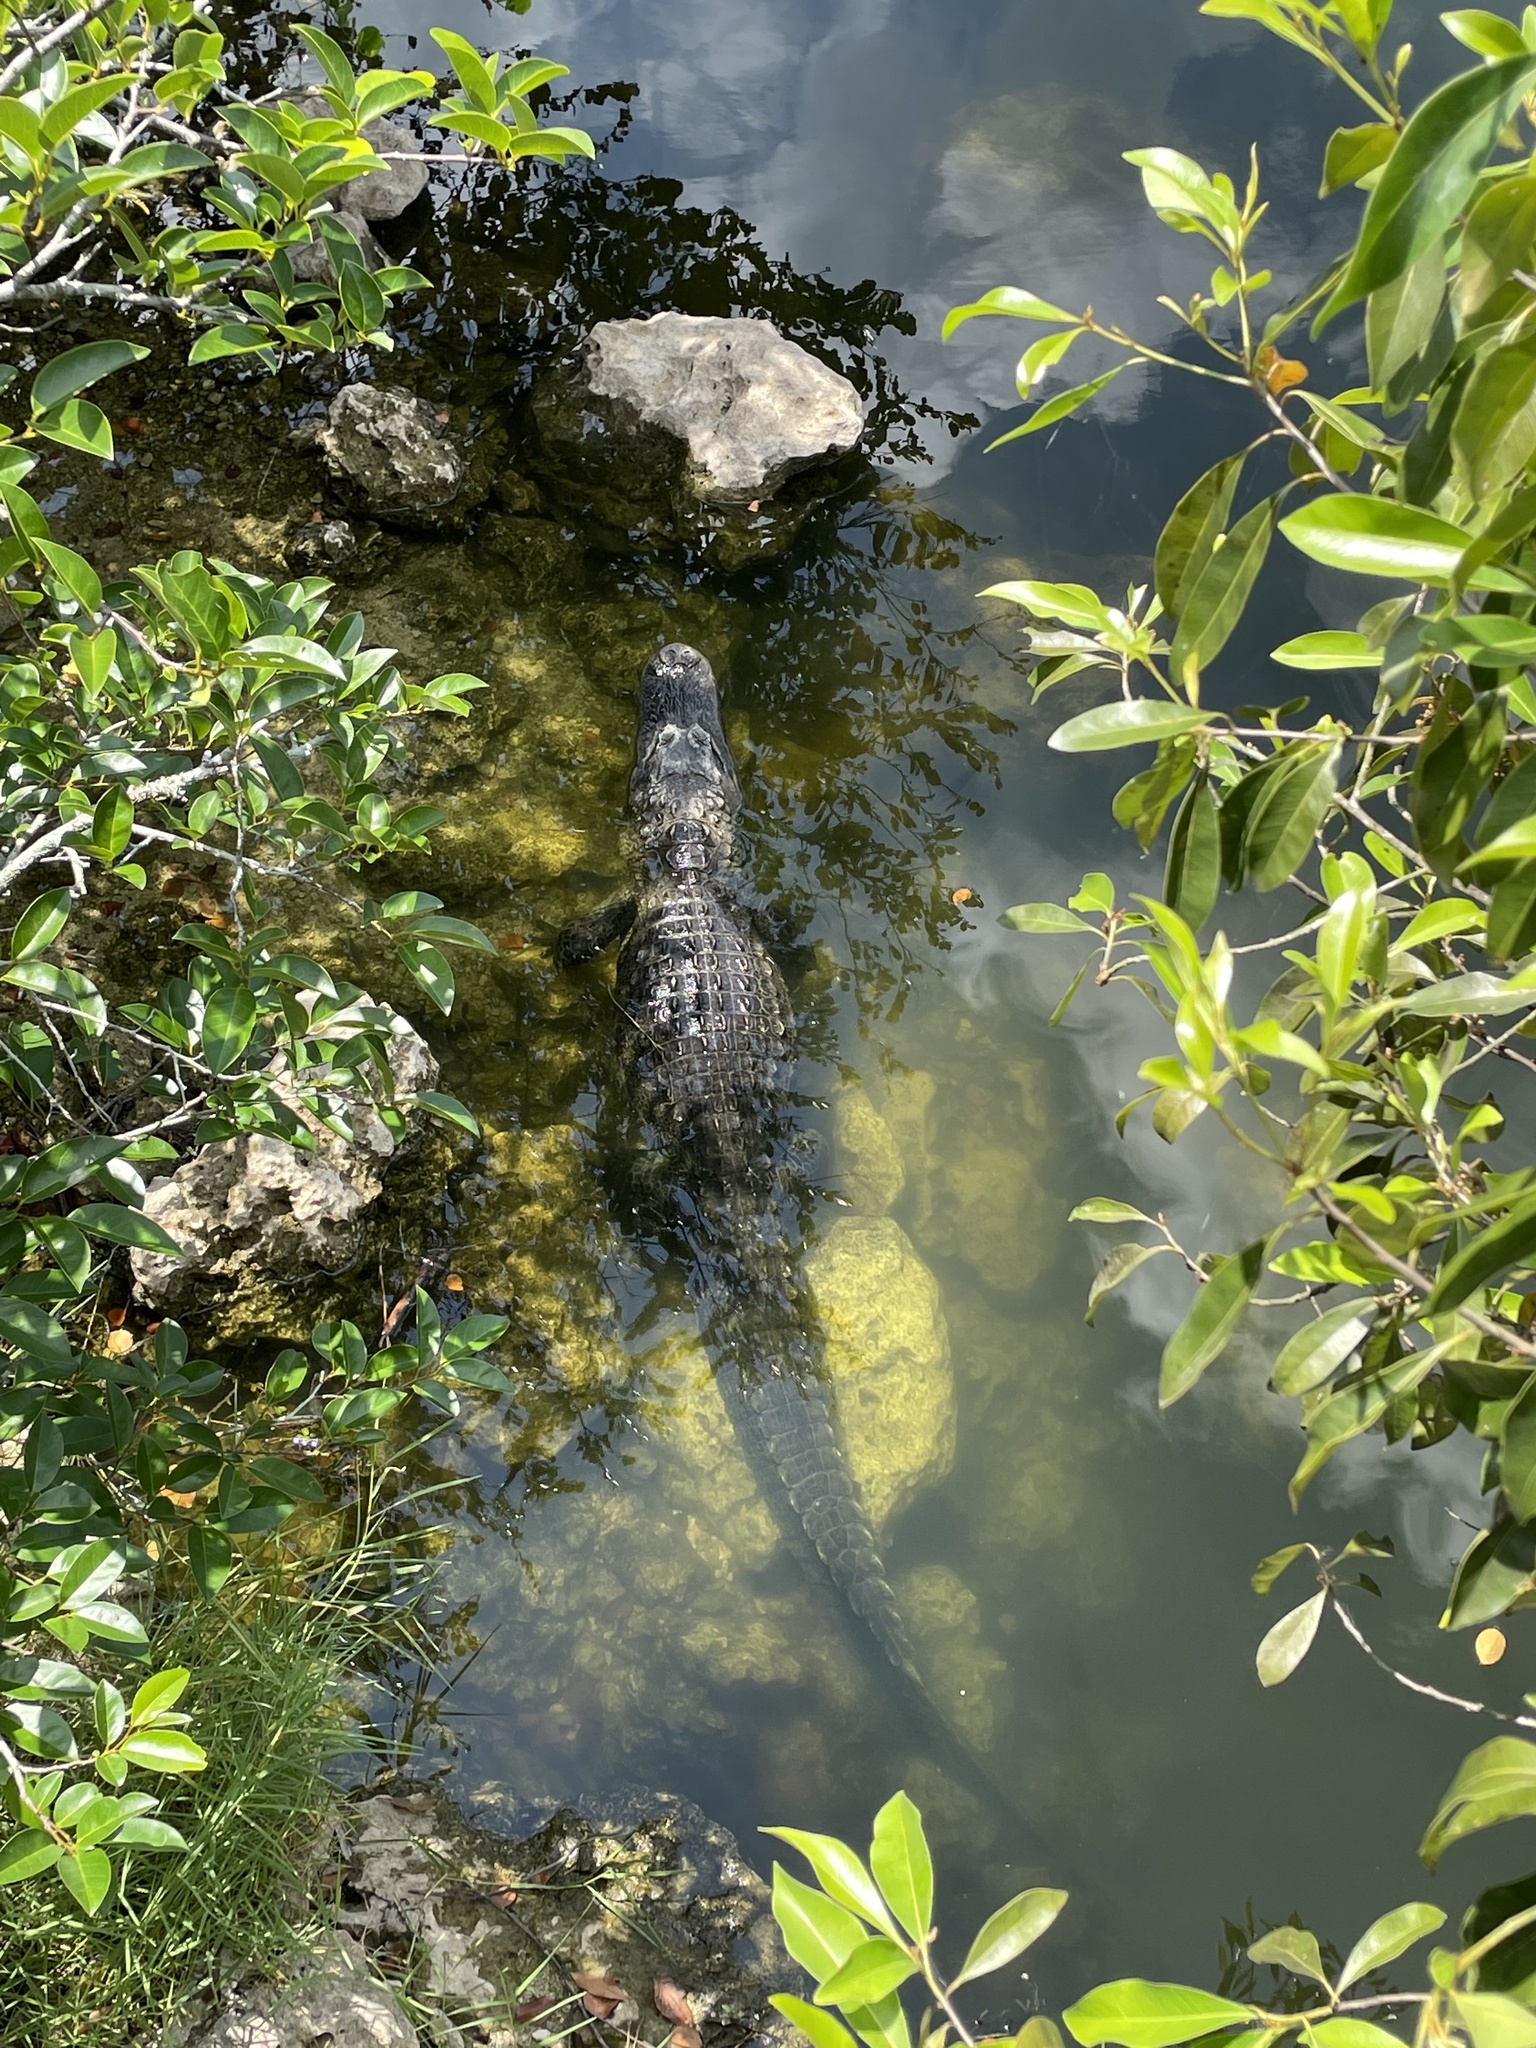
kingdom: Animalia
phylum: Chordata
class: Crocodylia
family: Alligatoridae
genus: Alligator
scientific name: Alligator mississippiensis
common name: American alligator
